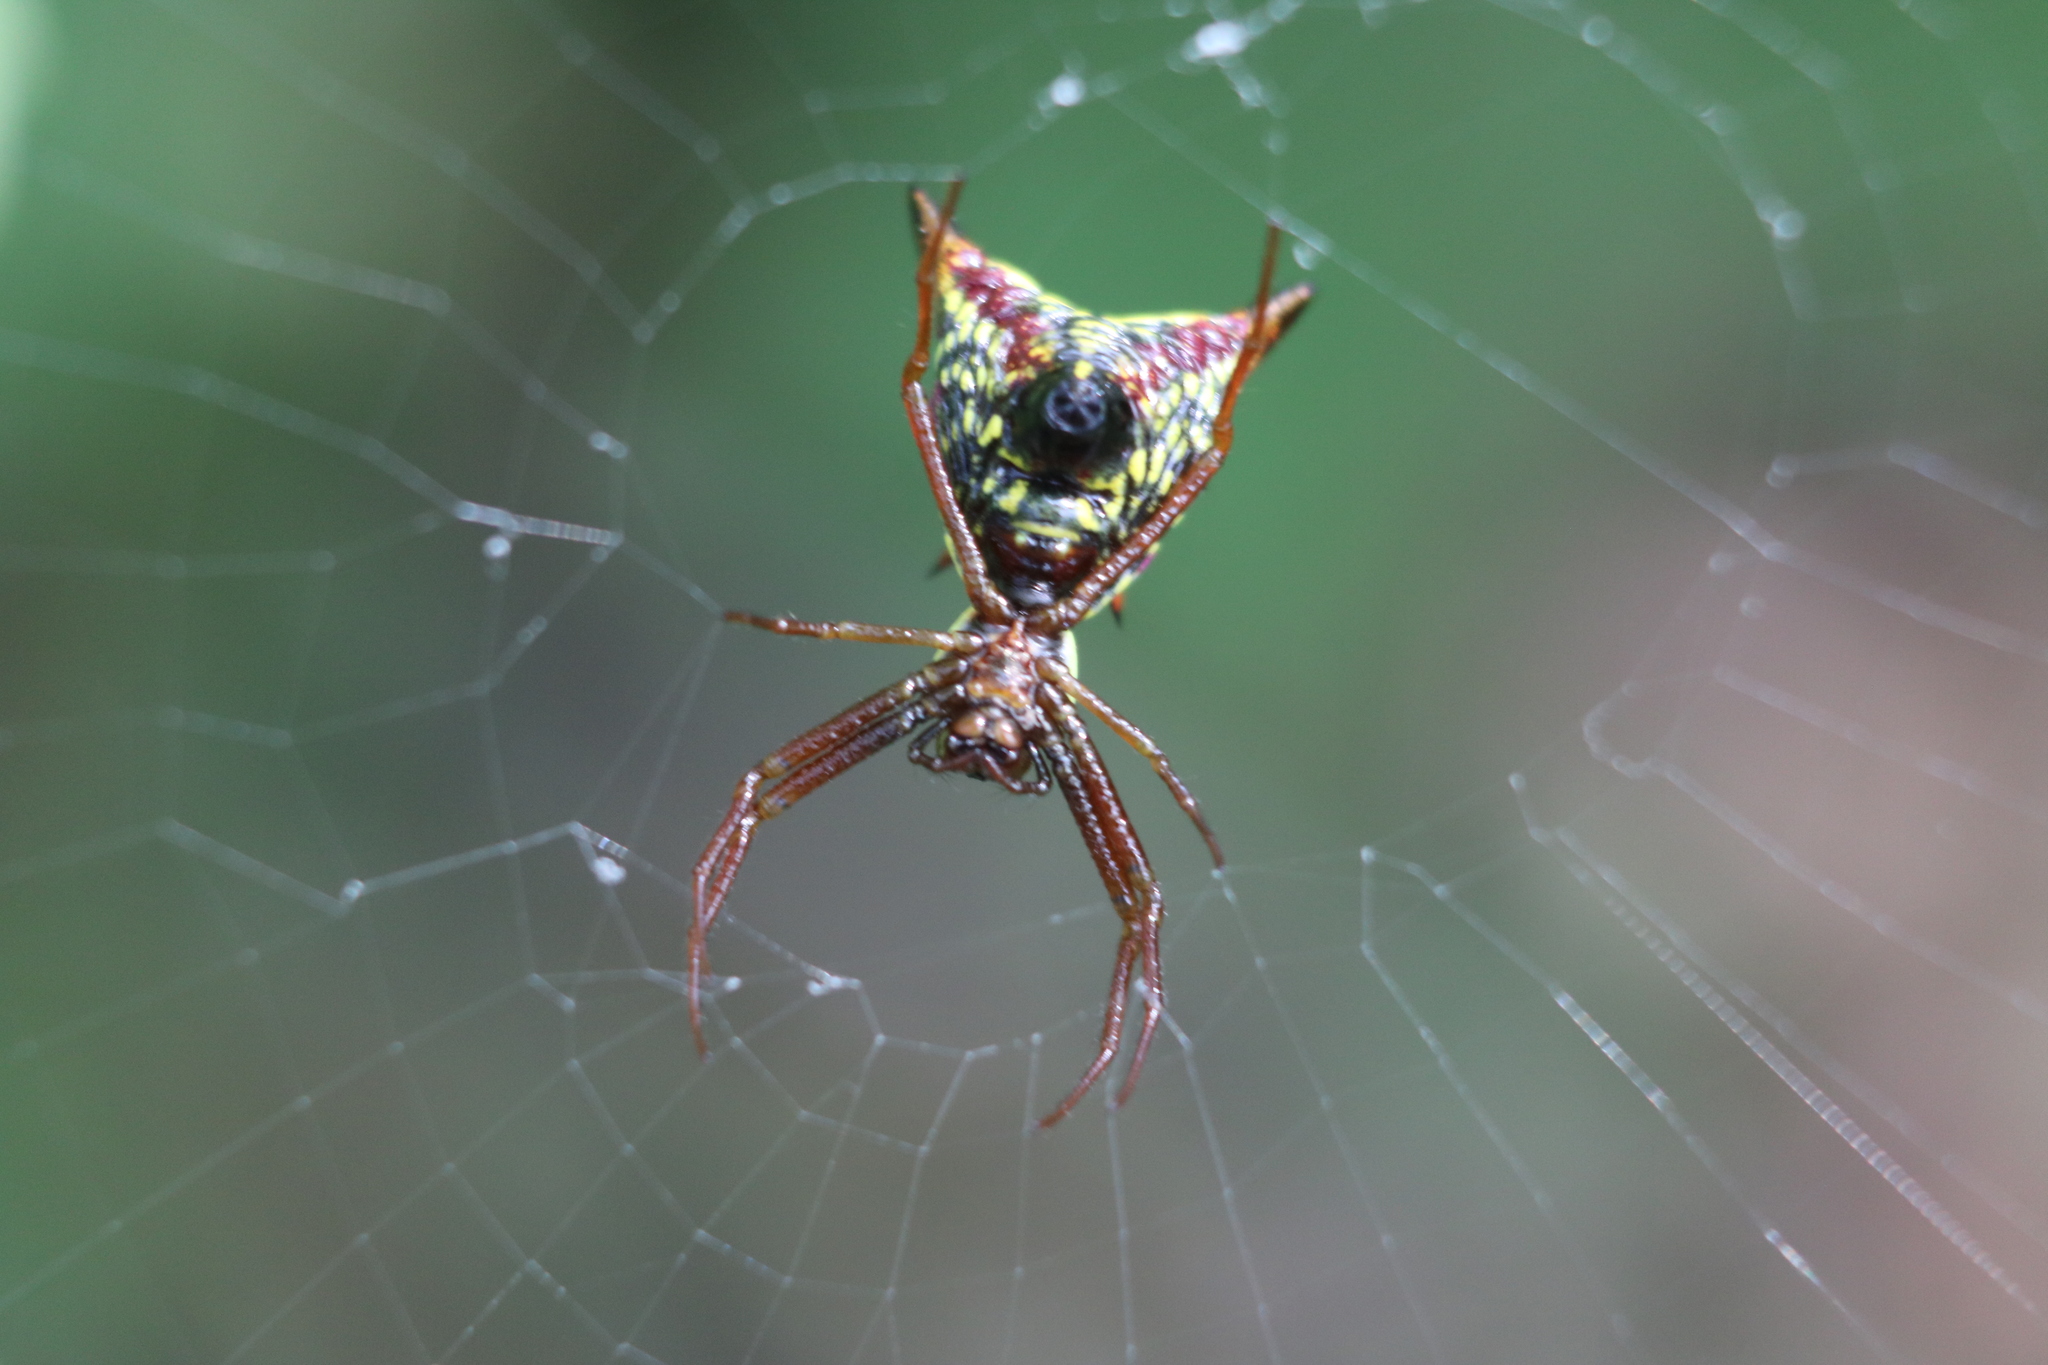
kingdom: Animalia
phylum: Arthropoda
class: Arachnida
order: Araneae
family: Araneidae
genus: Micrathena
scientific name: Micrathena sagittata
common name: Orb weavers
